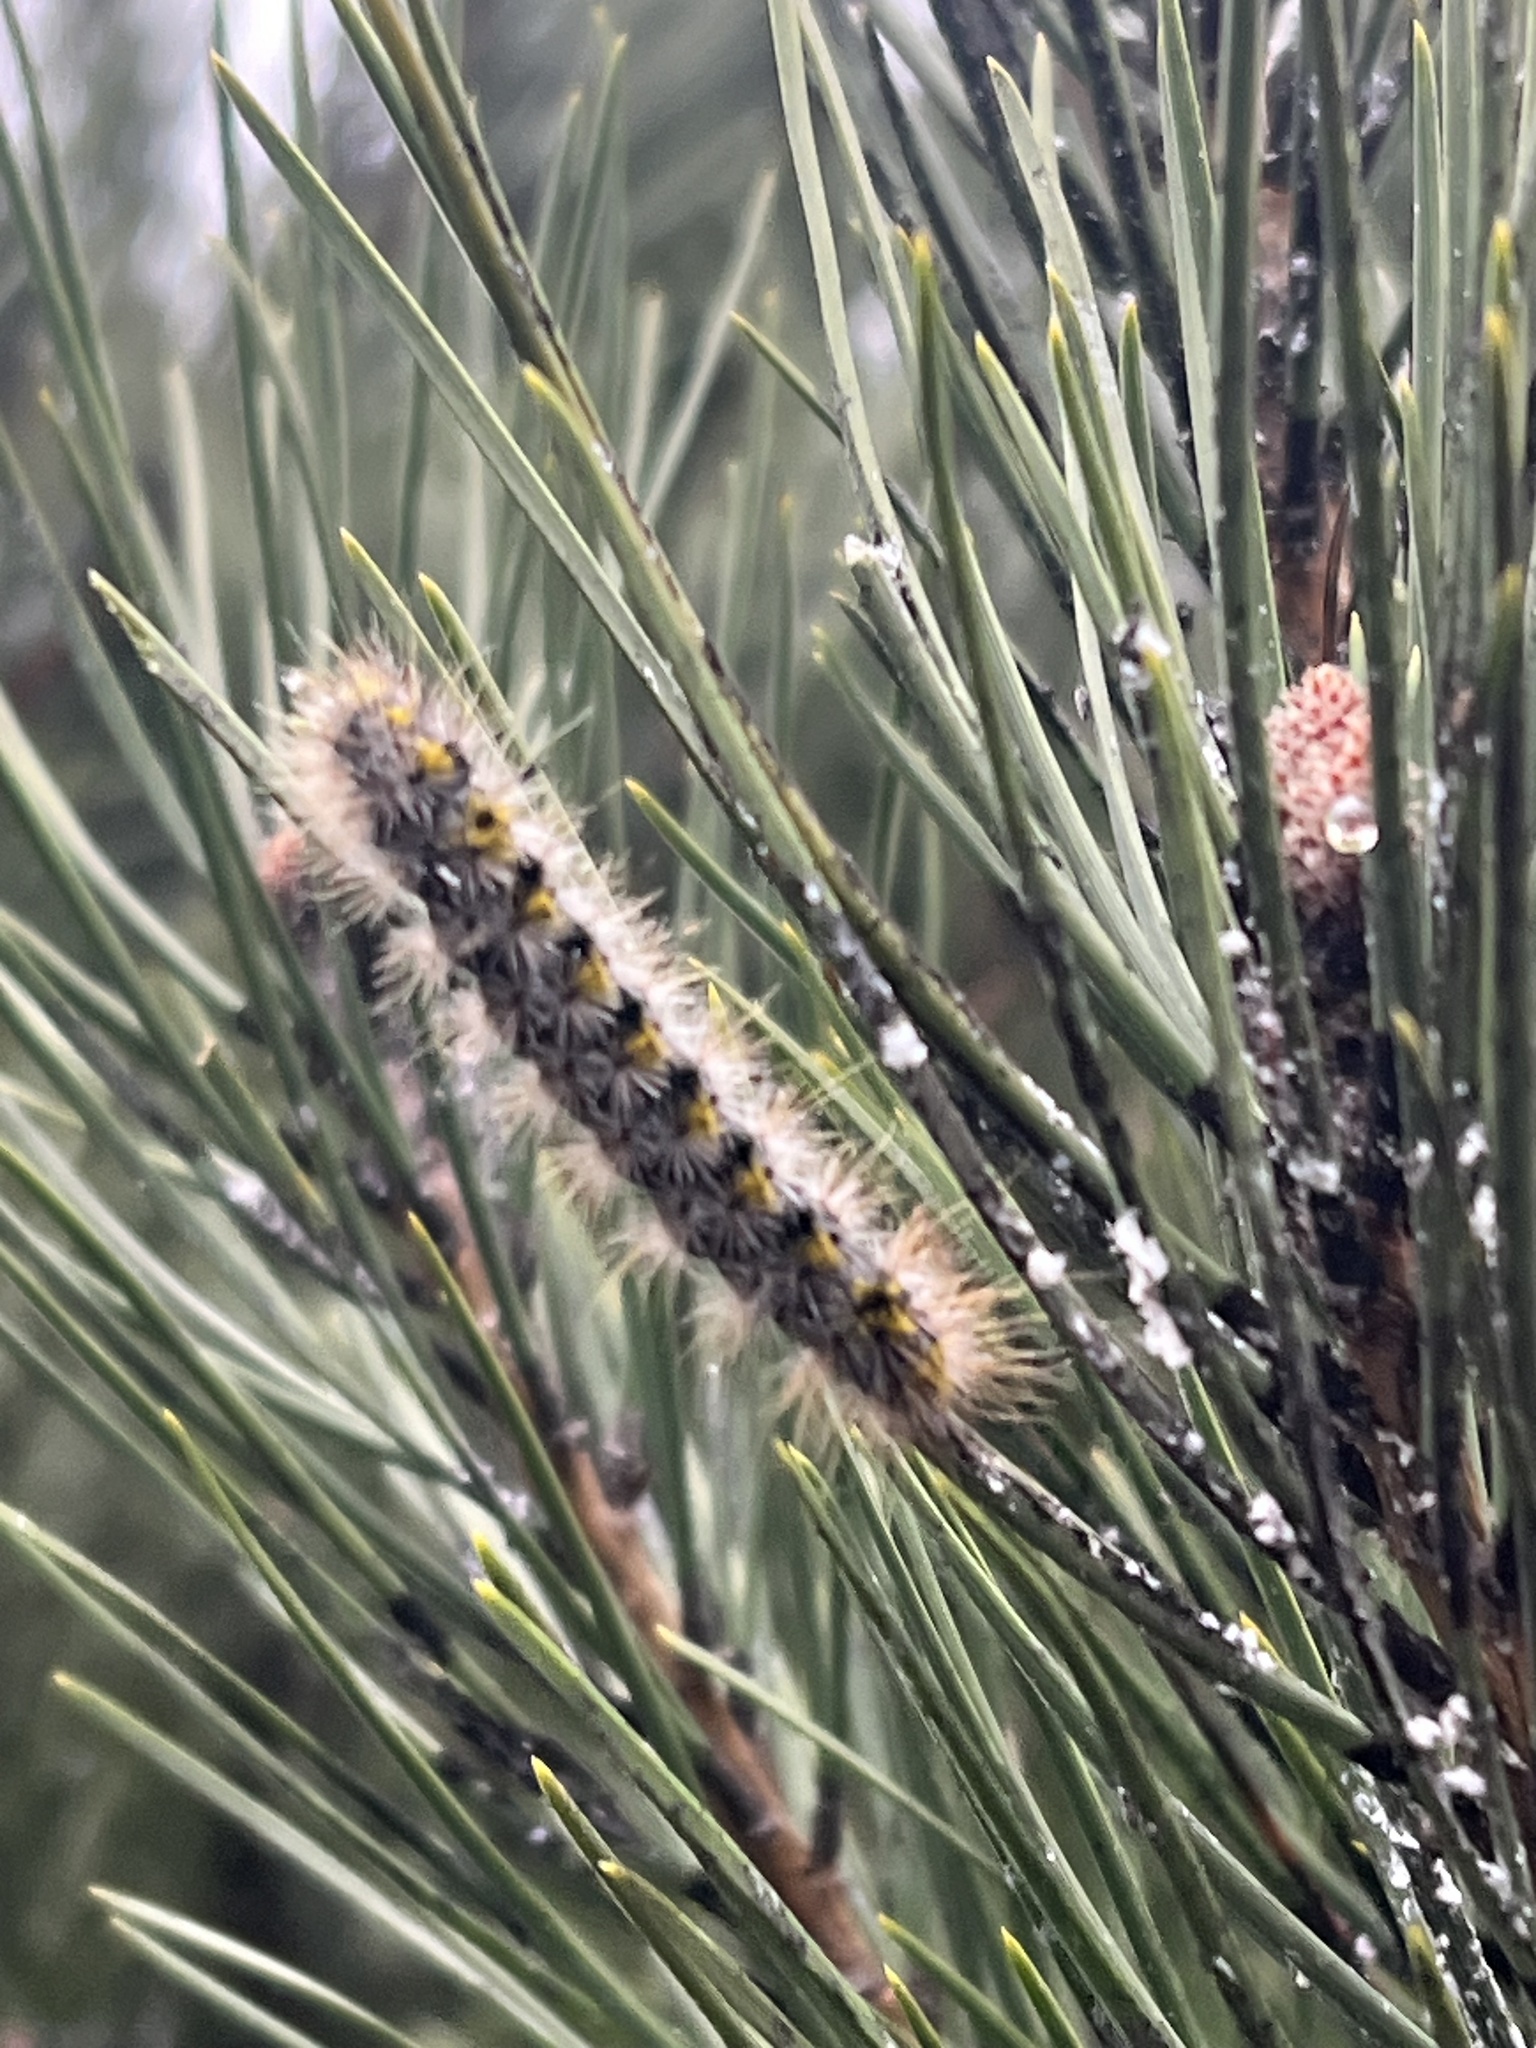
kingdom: Animalia
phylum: Arthropoda
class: Insecta
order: Lepidoptera
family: Erebidae
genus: Lophocampa
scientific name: Lophocampa sobrina
